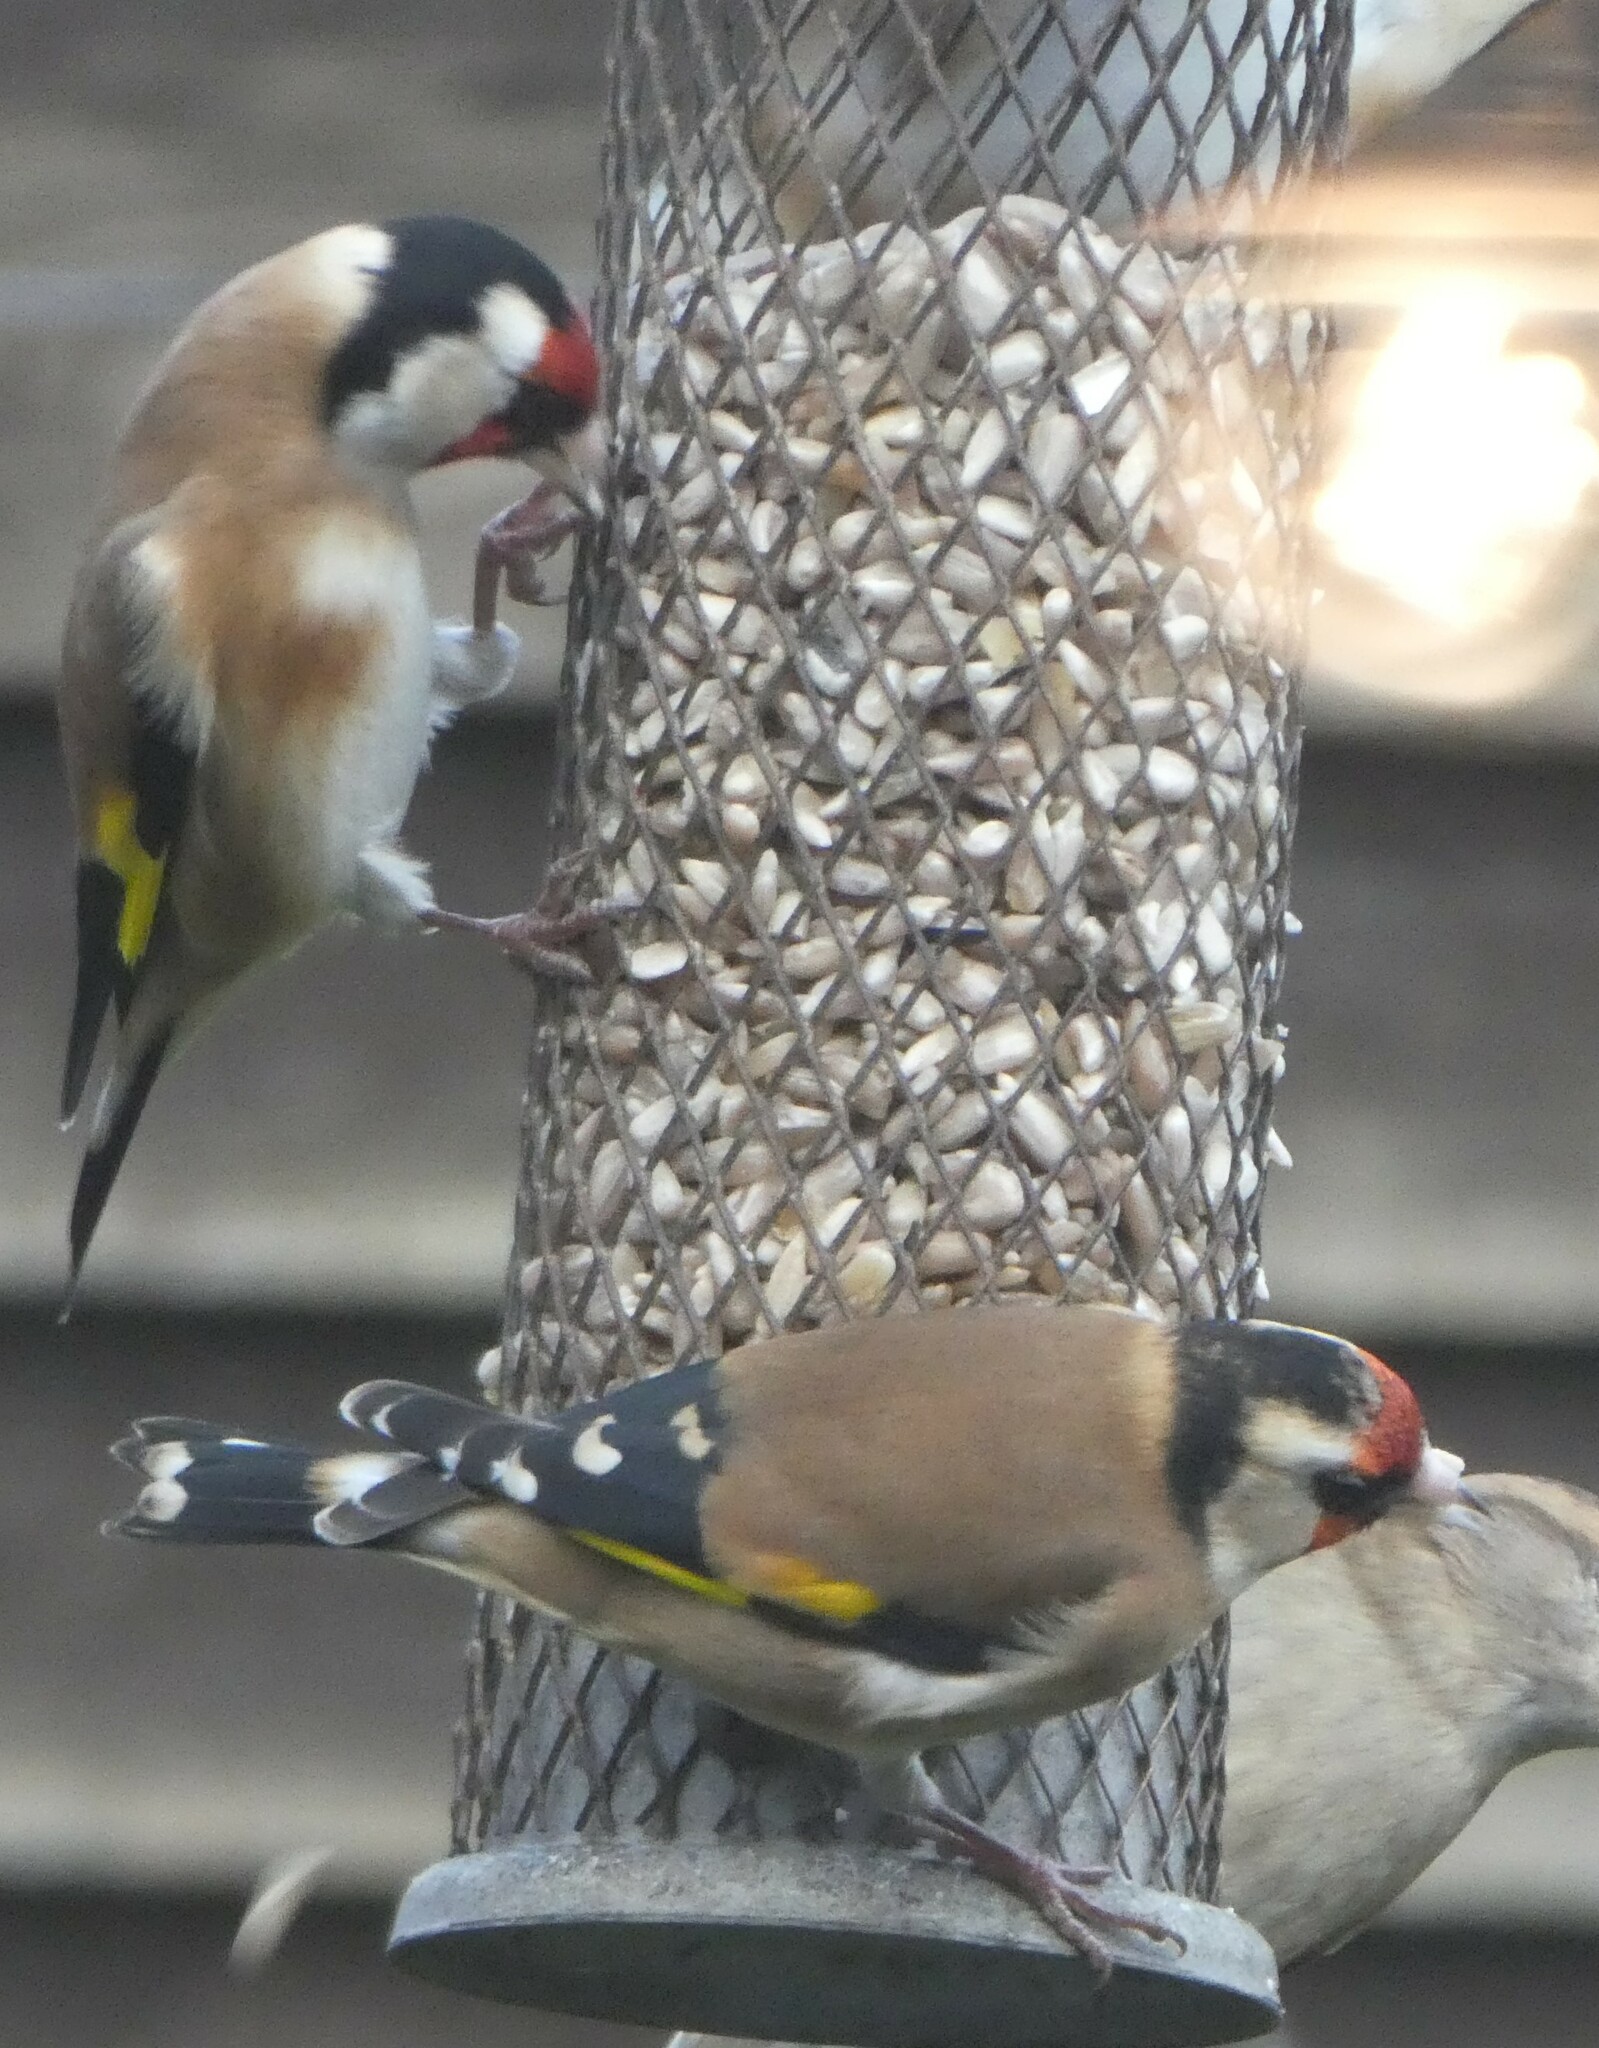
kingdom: Animalia
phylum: Chordata
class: Aves
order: Passeriformes
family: Fringillidae
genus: Carduelis
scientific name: Carduelis carduelis
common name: European goldfinch
